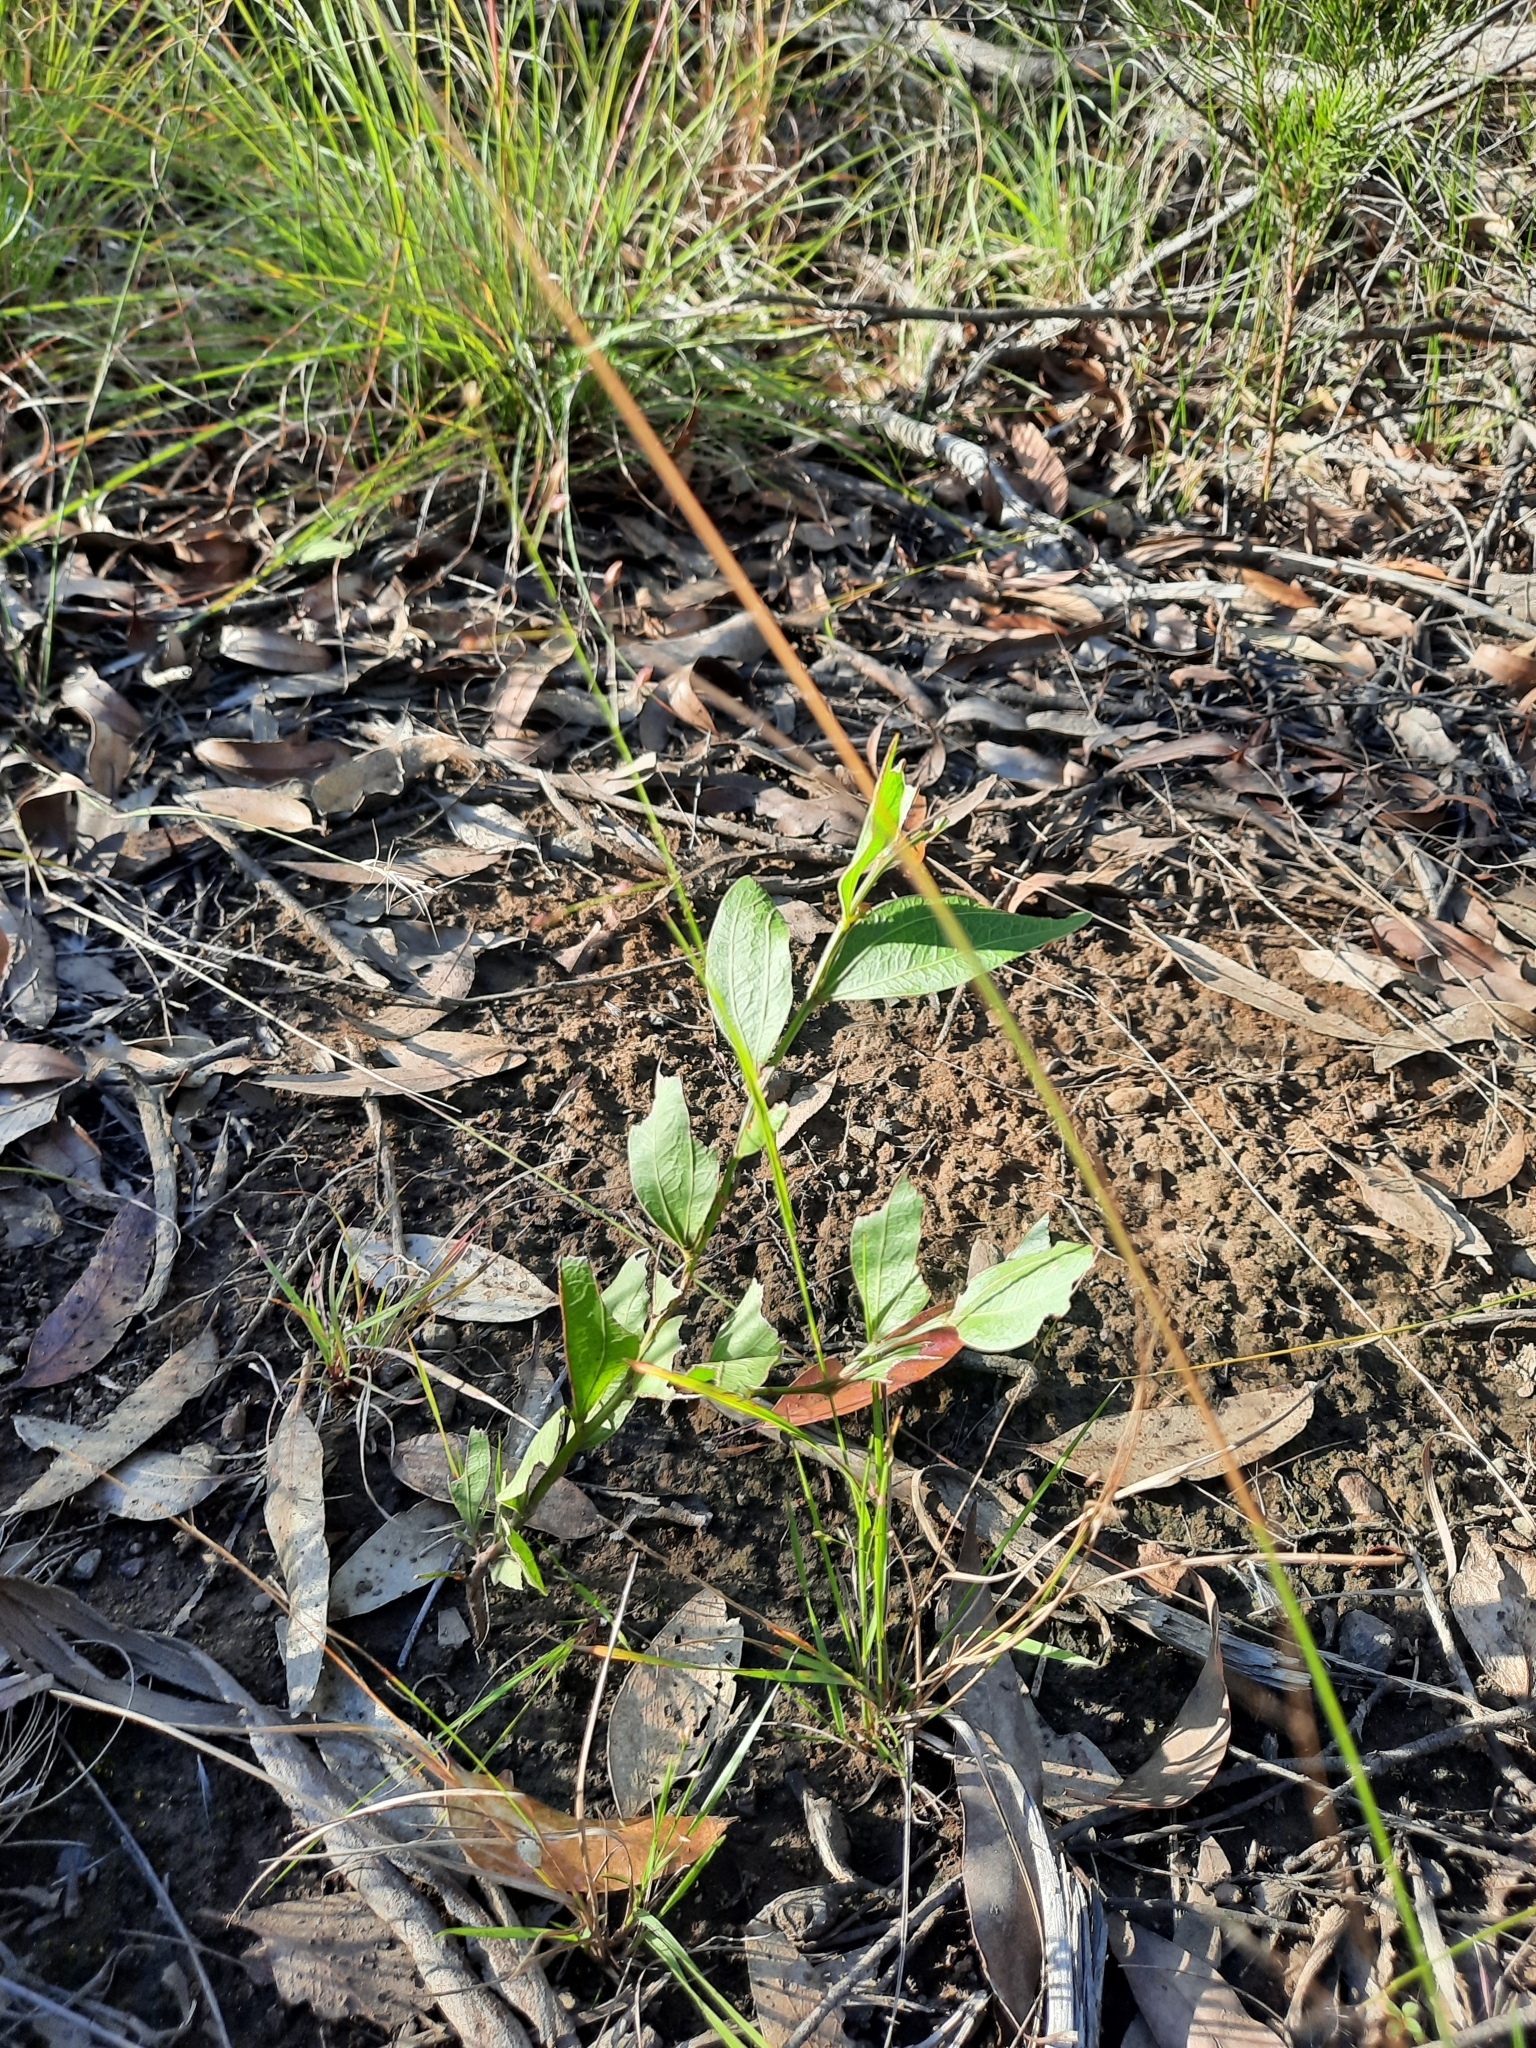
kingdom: Plantae
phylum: Tracheophyta
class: Magnoliopsida
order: Fabales
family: Fabaceae
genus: Acacia
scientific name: Acacia binervata
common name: Two-veined hickory
